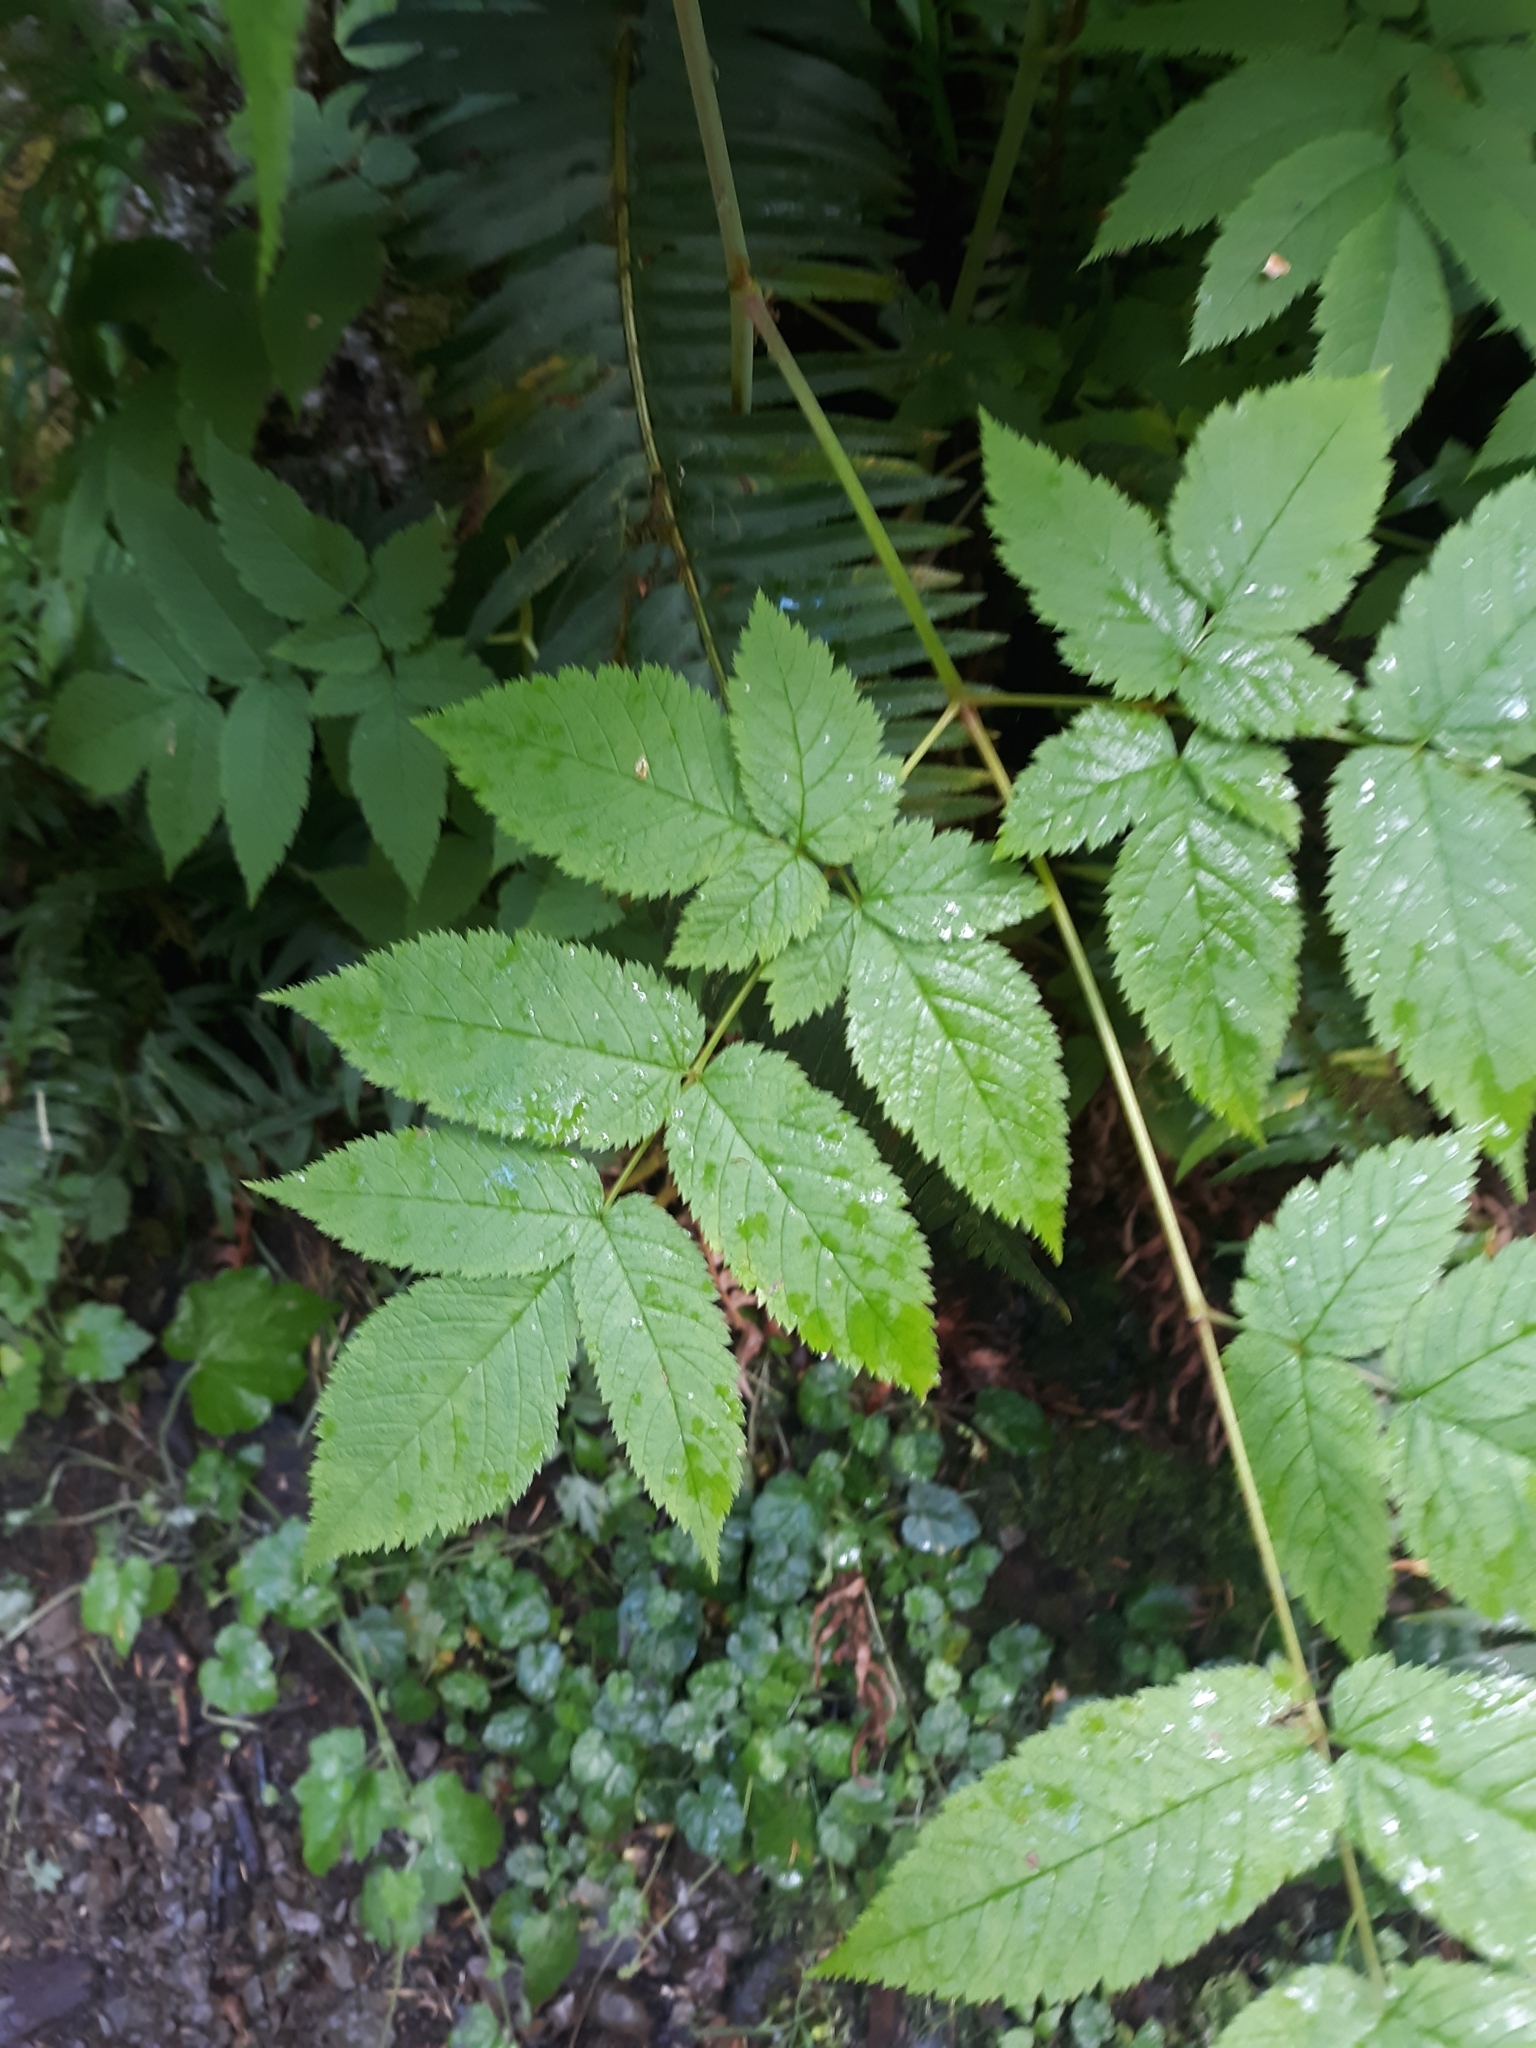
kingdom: Plantae
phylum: Tracheophyta
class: Magnoliopsida
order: Rosales
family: Rosaceae
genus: Aruncus
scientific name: Aruncus dioicus
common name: Buck's-beard
